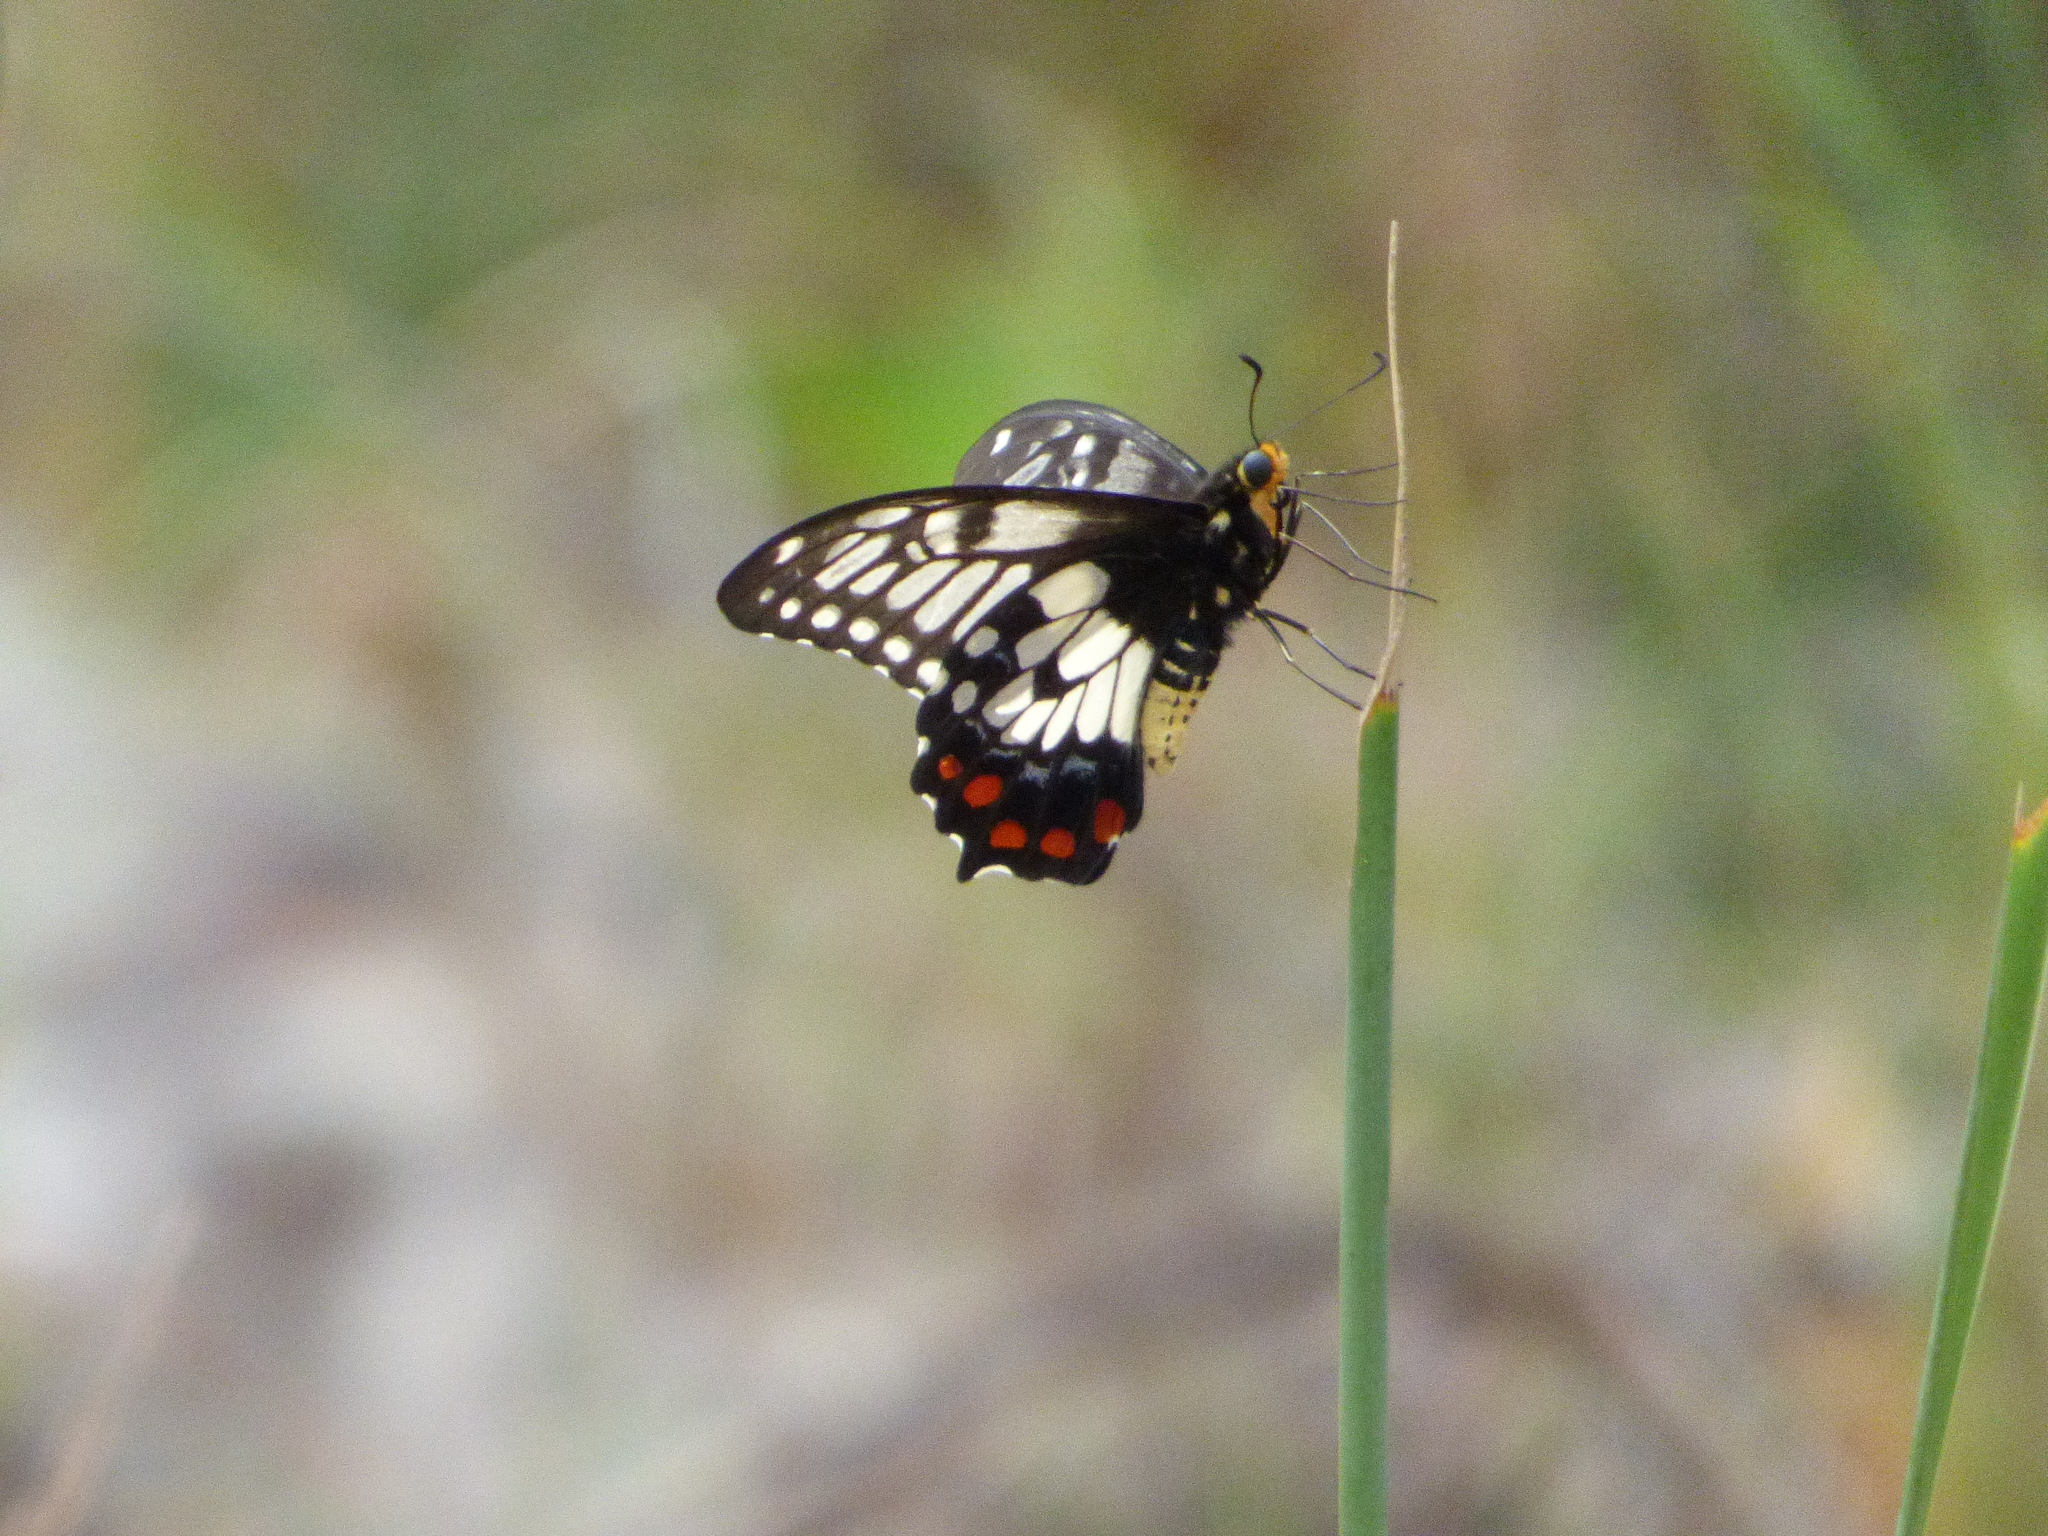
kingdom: Animalia
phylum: Arthropoda
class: Insecta
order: Lepidoptera
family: Papilionidae
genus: Papilio
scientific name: Papilio anactus
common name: Dingy swallowtail
